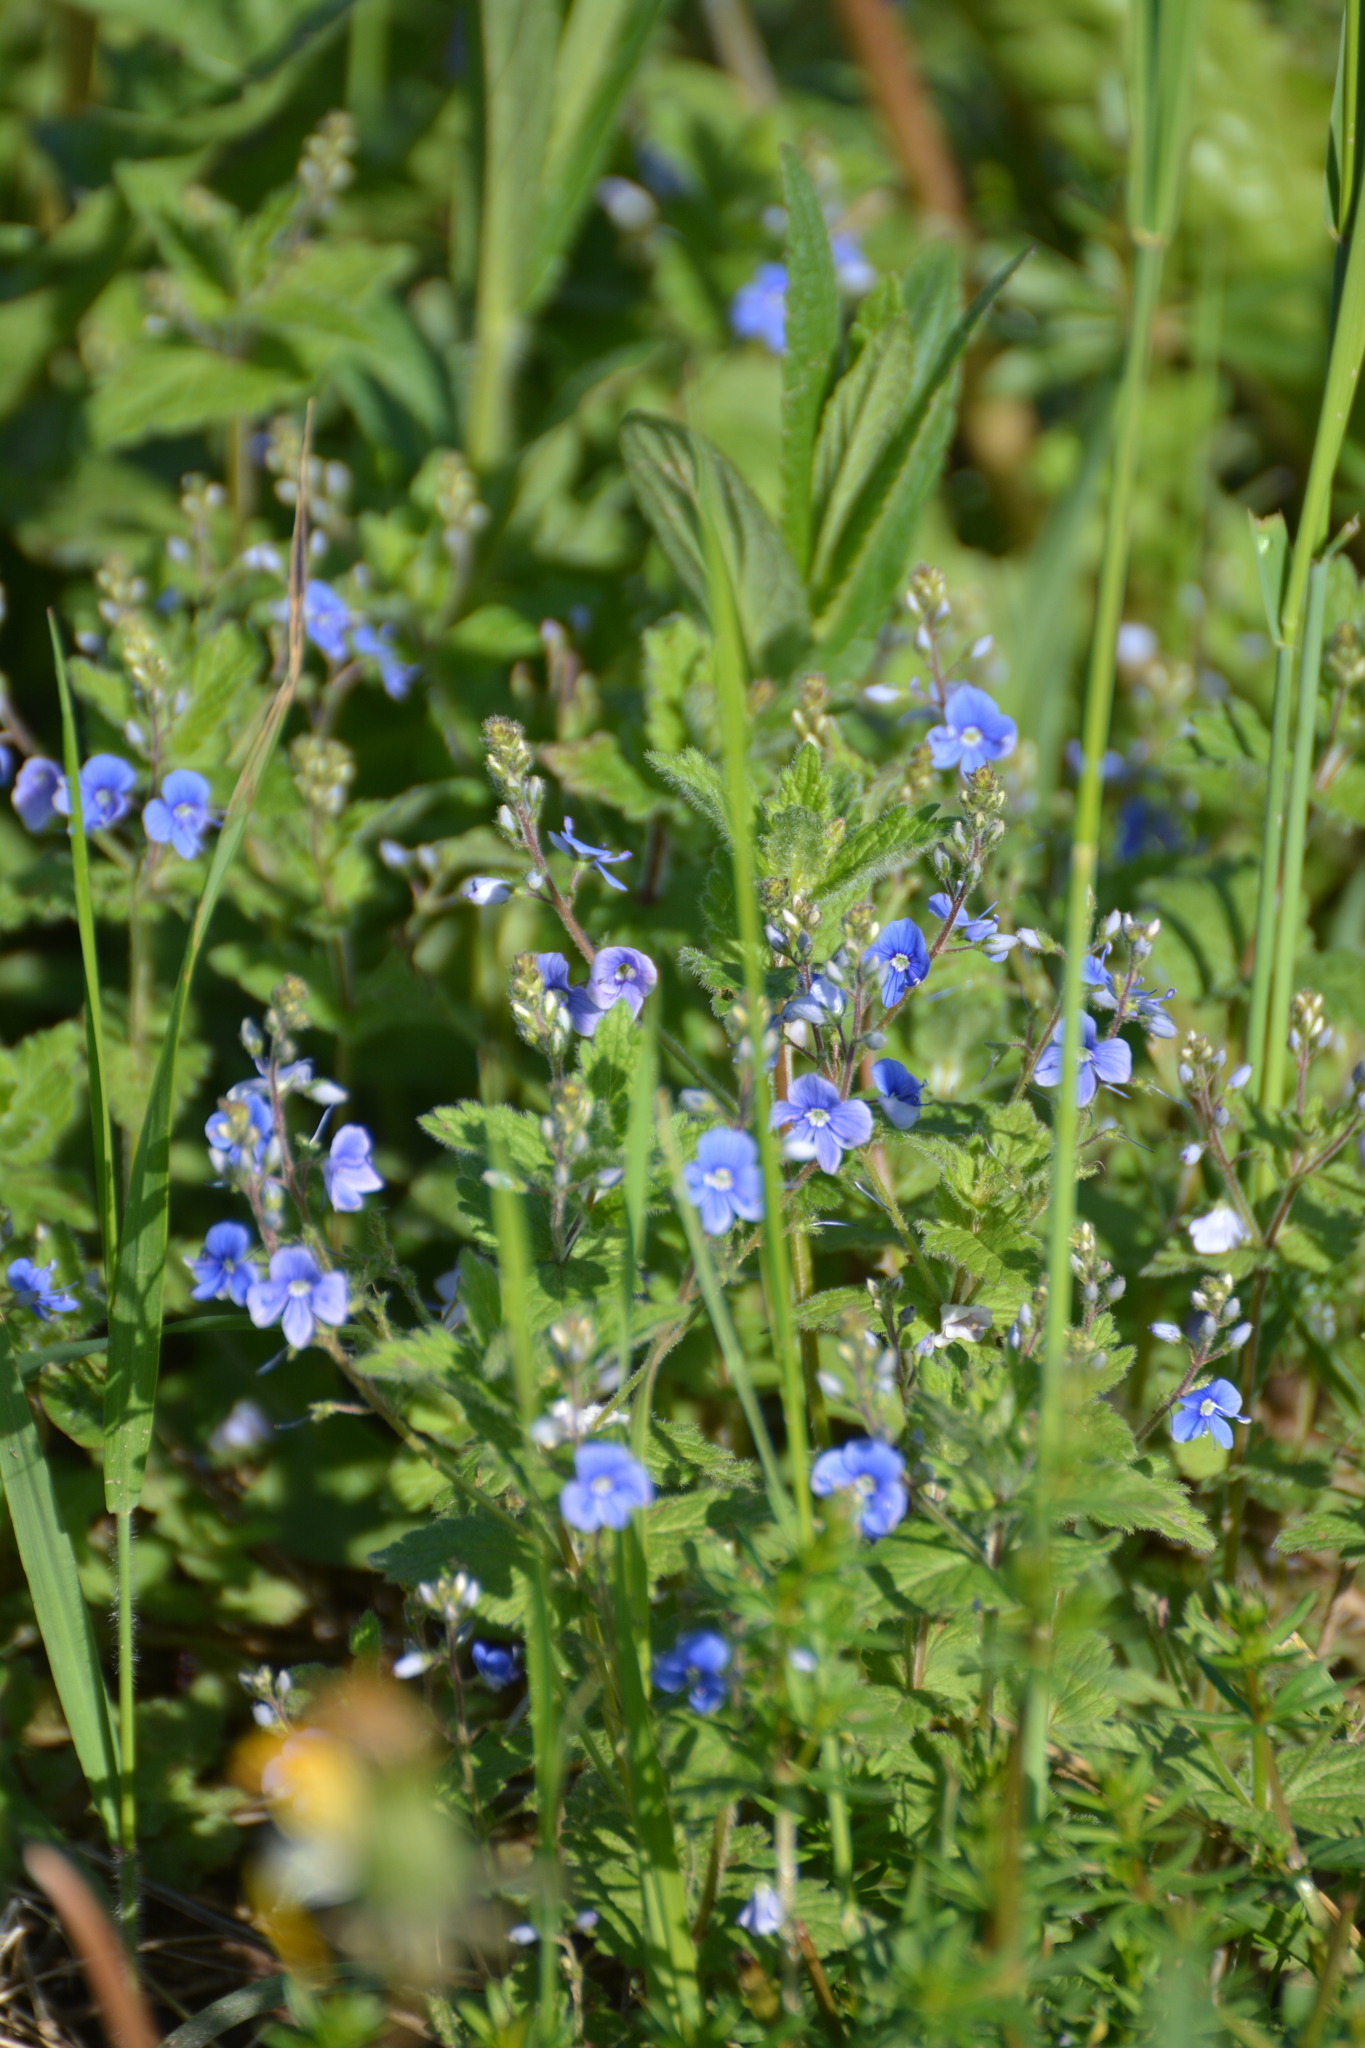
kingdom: Plantae
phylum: Tracheophyta
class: Magnoliopsida
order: Lamiales
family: Plantaginaceae
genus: Veronica
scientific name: Veronica chamaedrys
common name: Germander speedwell
